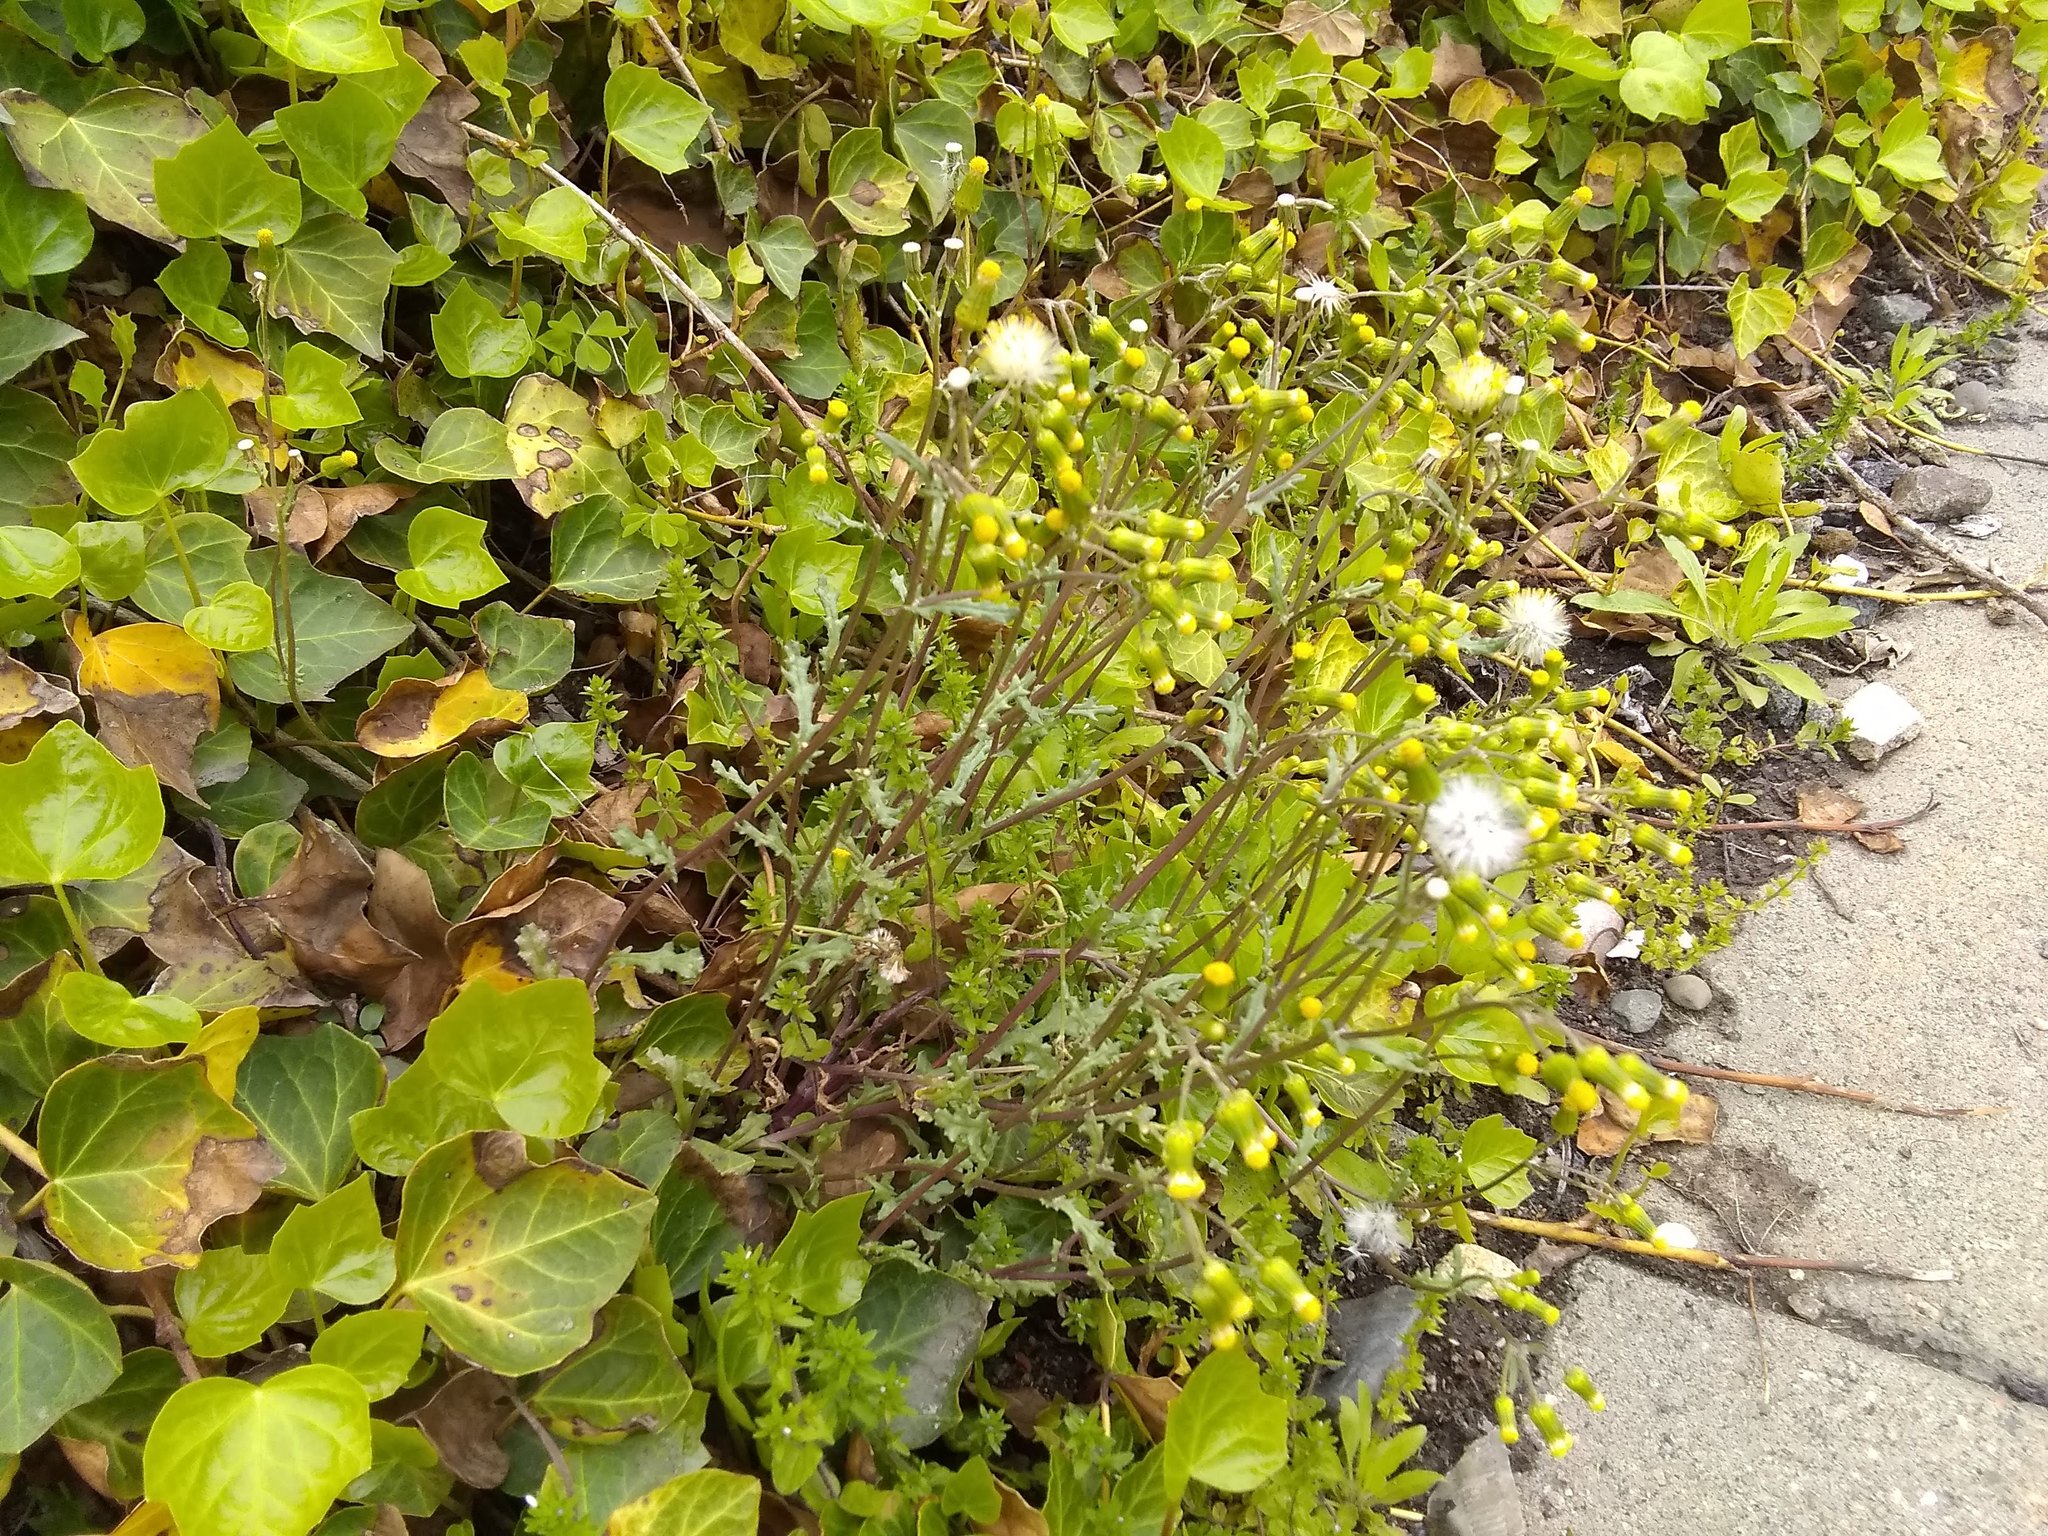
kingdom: Plantae
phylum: Tracheophyta
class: Magnoliopsida
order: Asterales
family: Asteraceae
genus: Senecio
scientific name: Senecio vulgaris
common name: Old-man-in-the-spring
